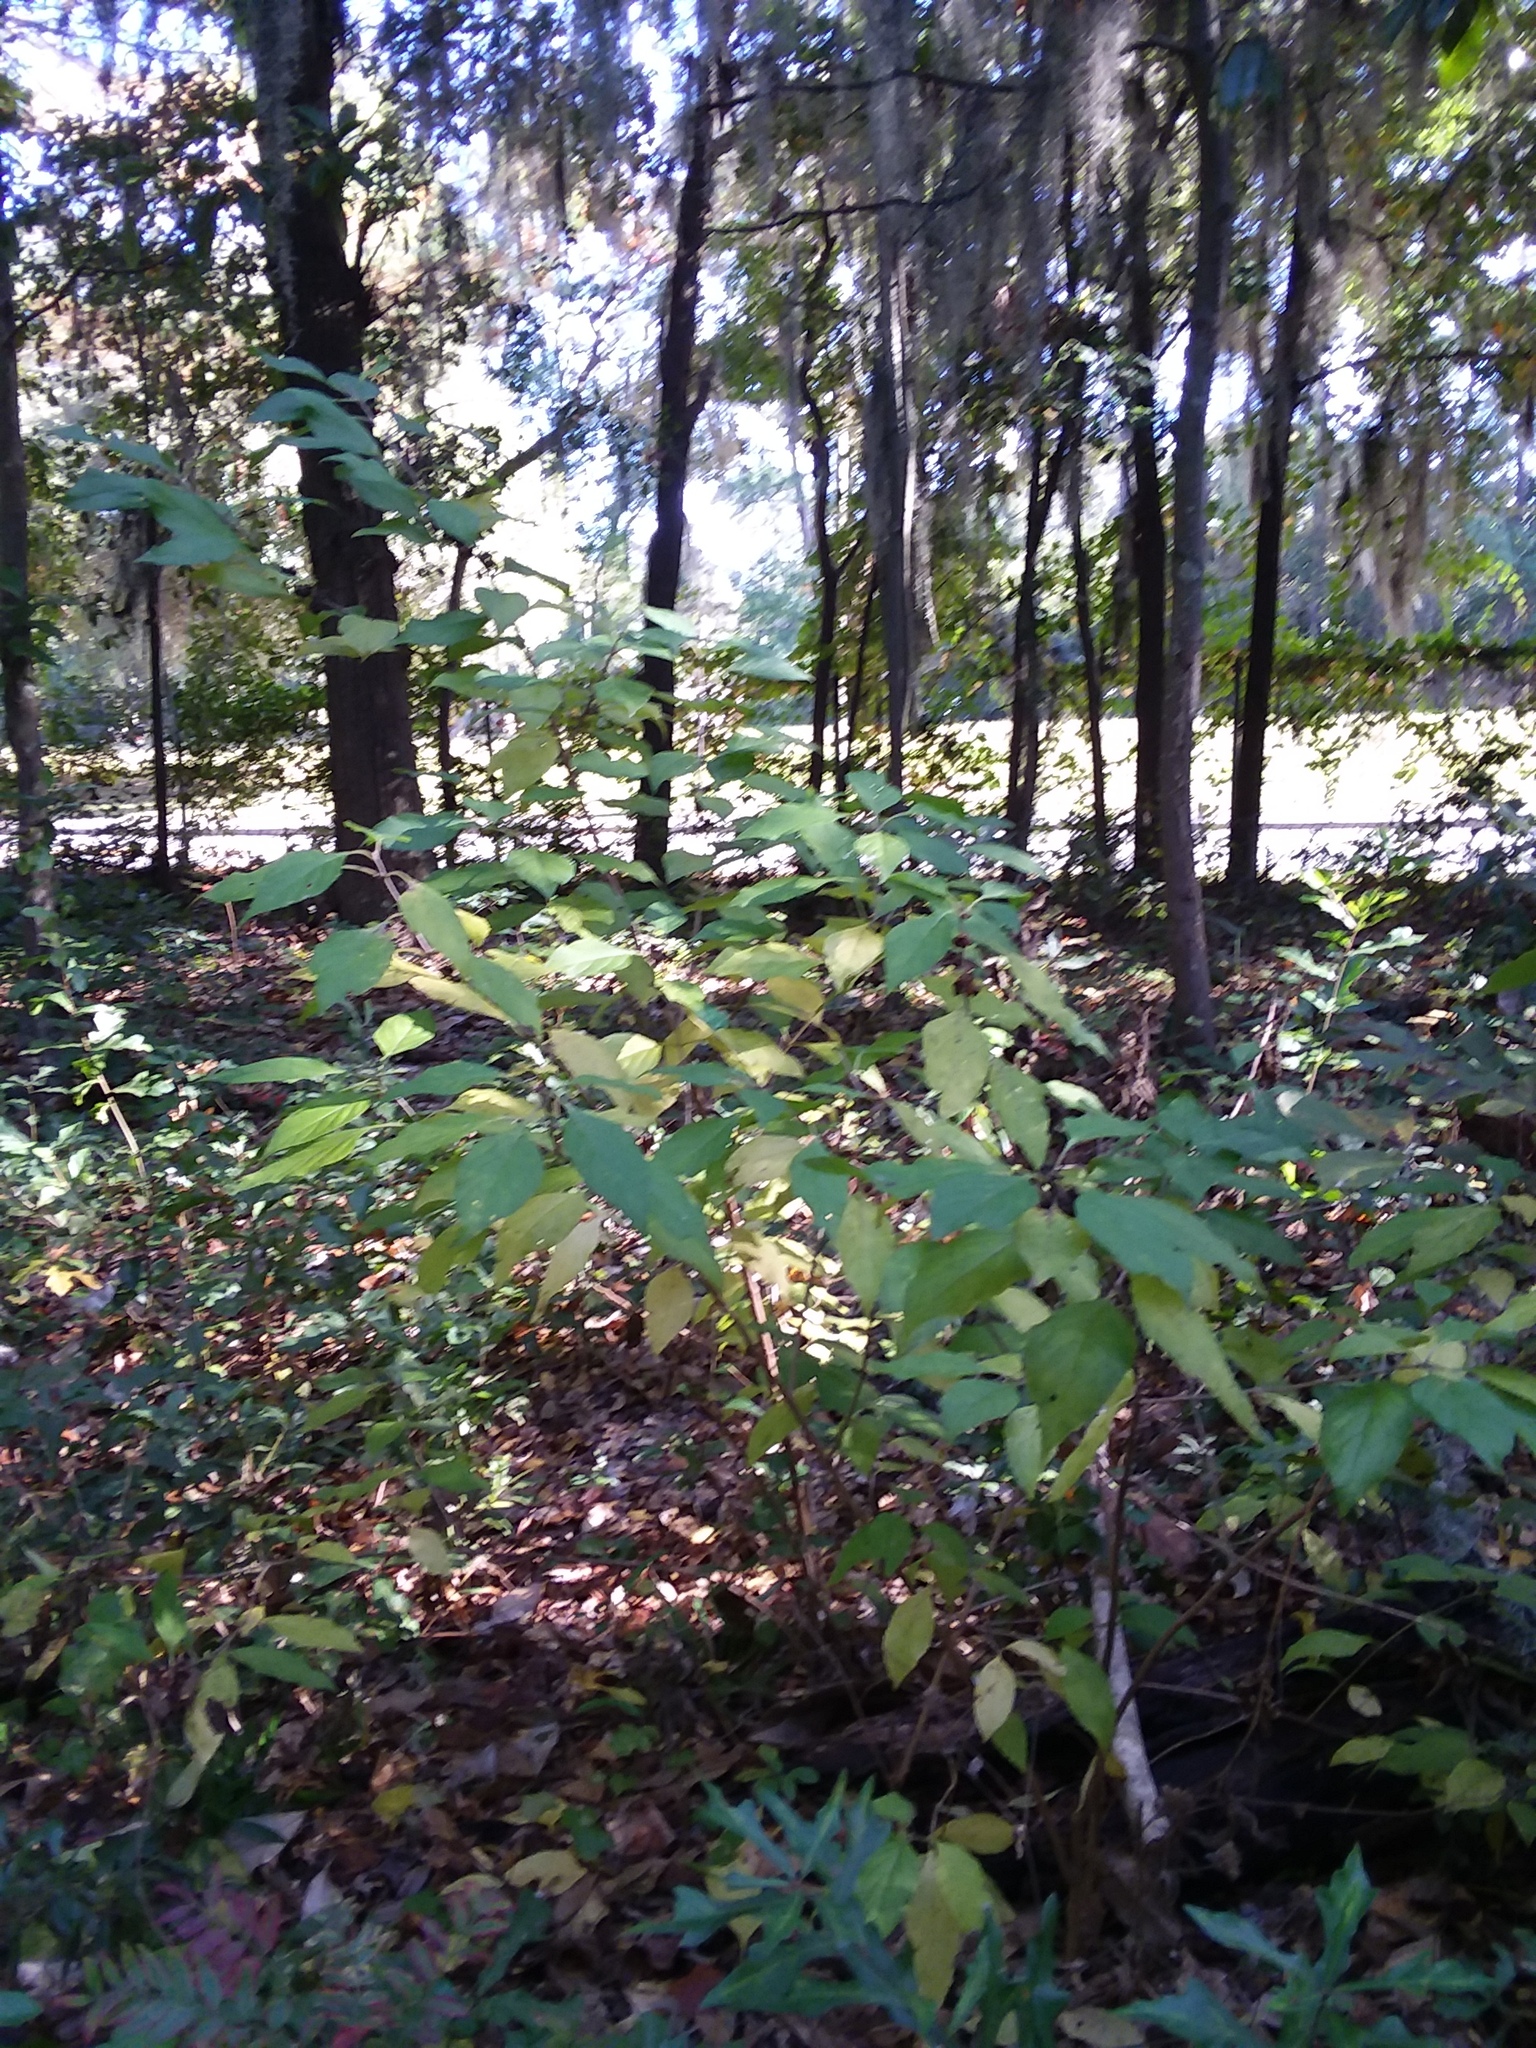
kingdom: Plantae
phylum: Tracheophyta
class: Magnoliopsida
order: Lamiales
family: Lamiaceae
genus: Callicarpa
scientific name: Callicarpa americana
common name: American beautyberry
